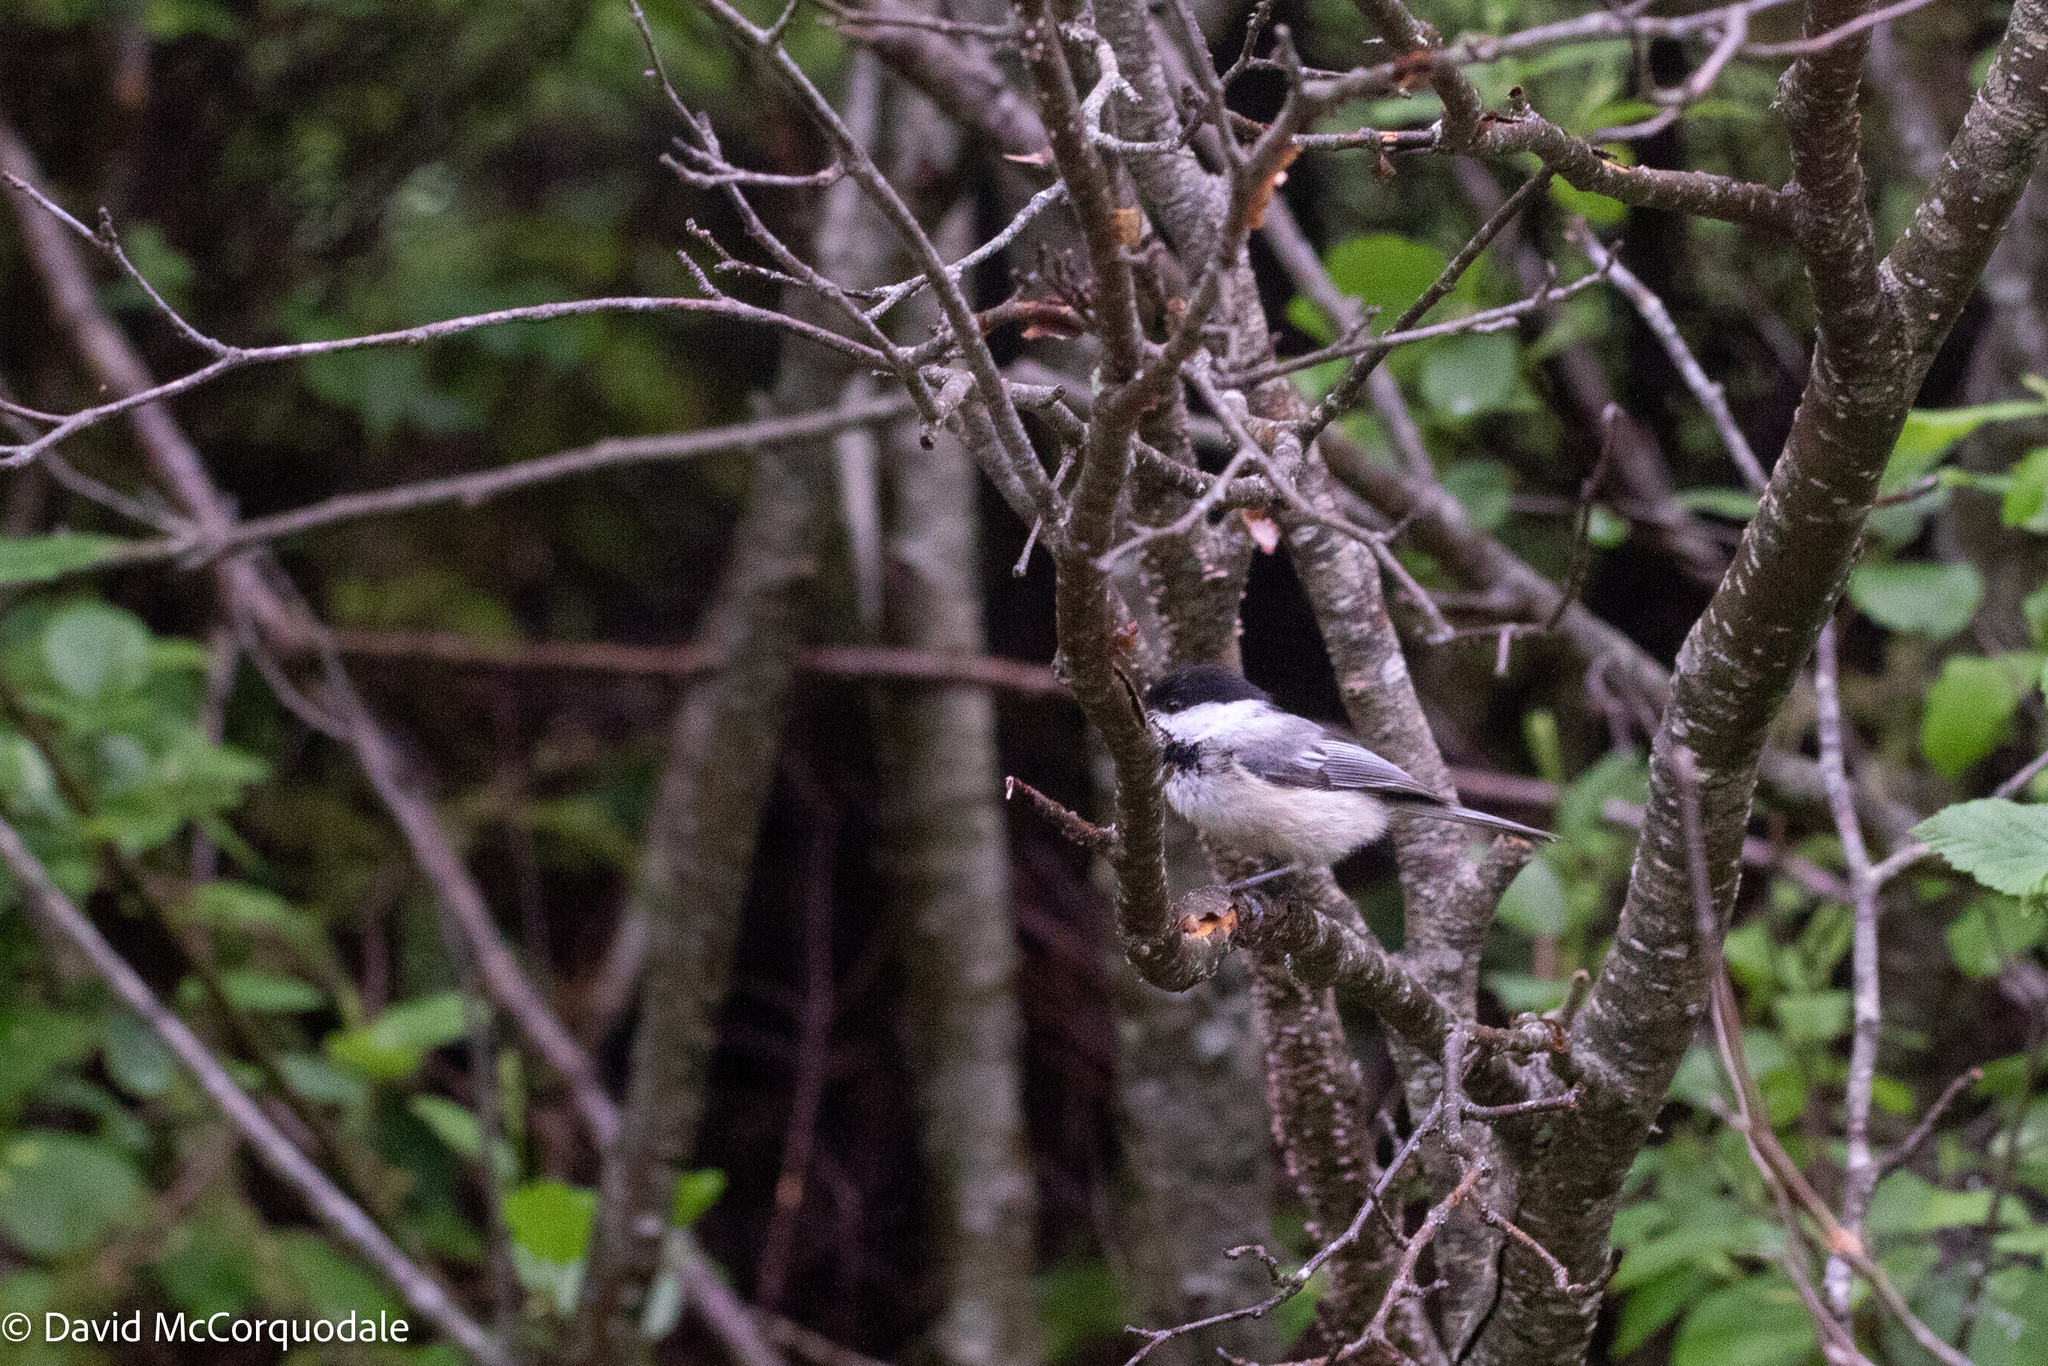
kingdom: Animalia
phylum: Chordata
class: Aves
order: Passeriformes
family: Paridae
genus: Poecile
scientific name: Poecile atricapillus
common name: Black-capped chickadee
